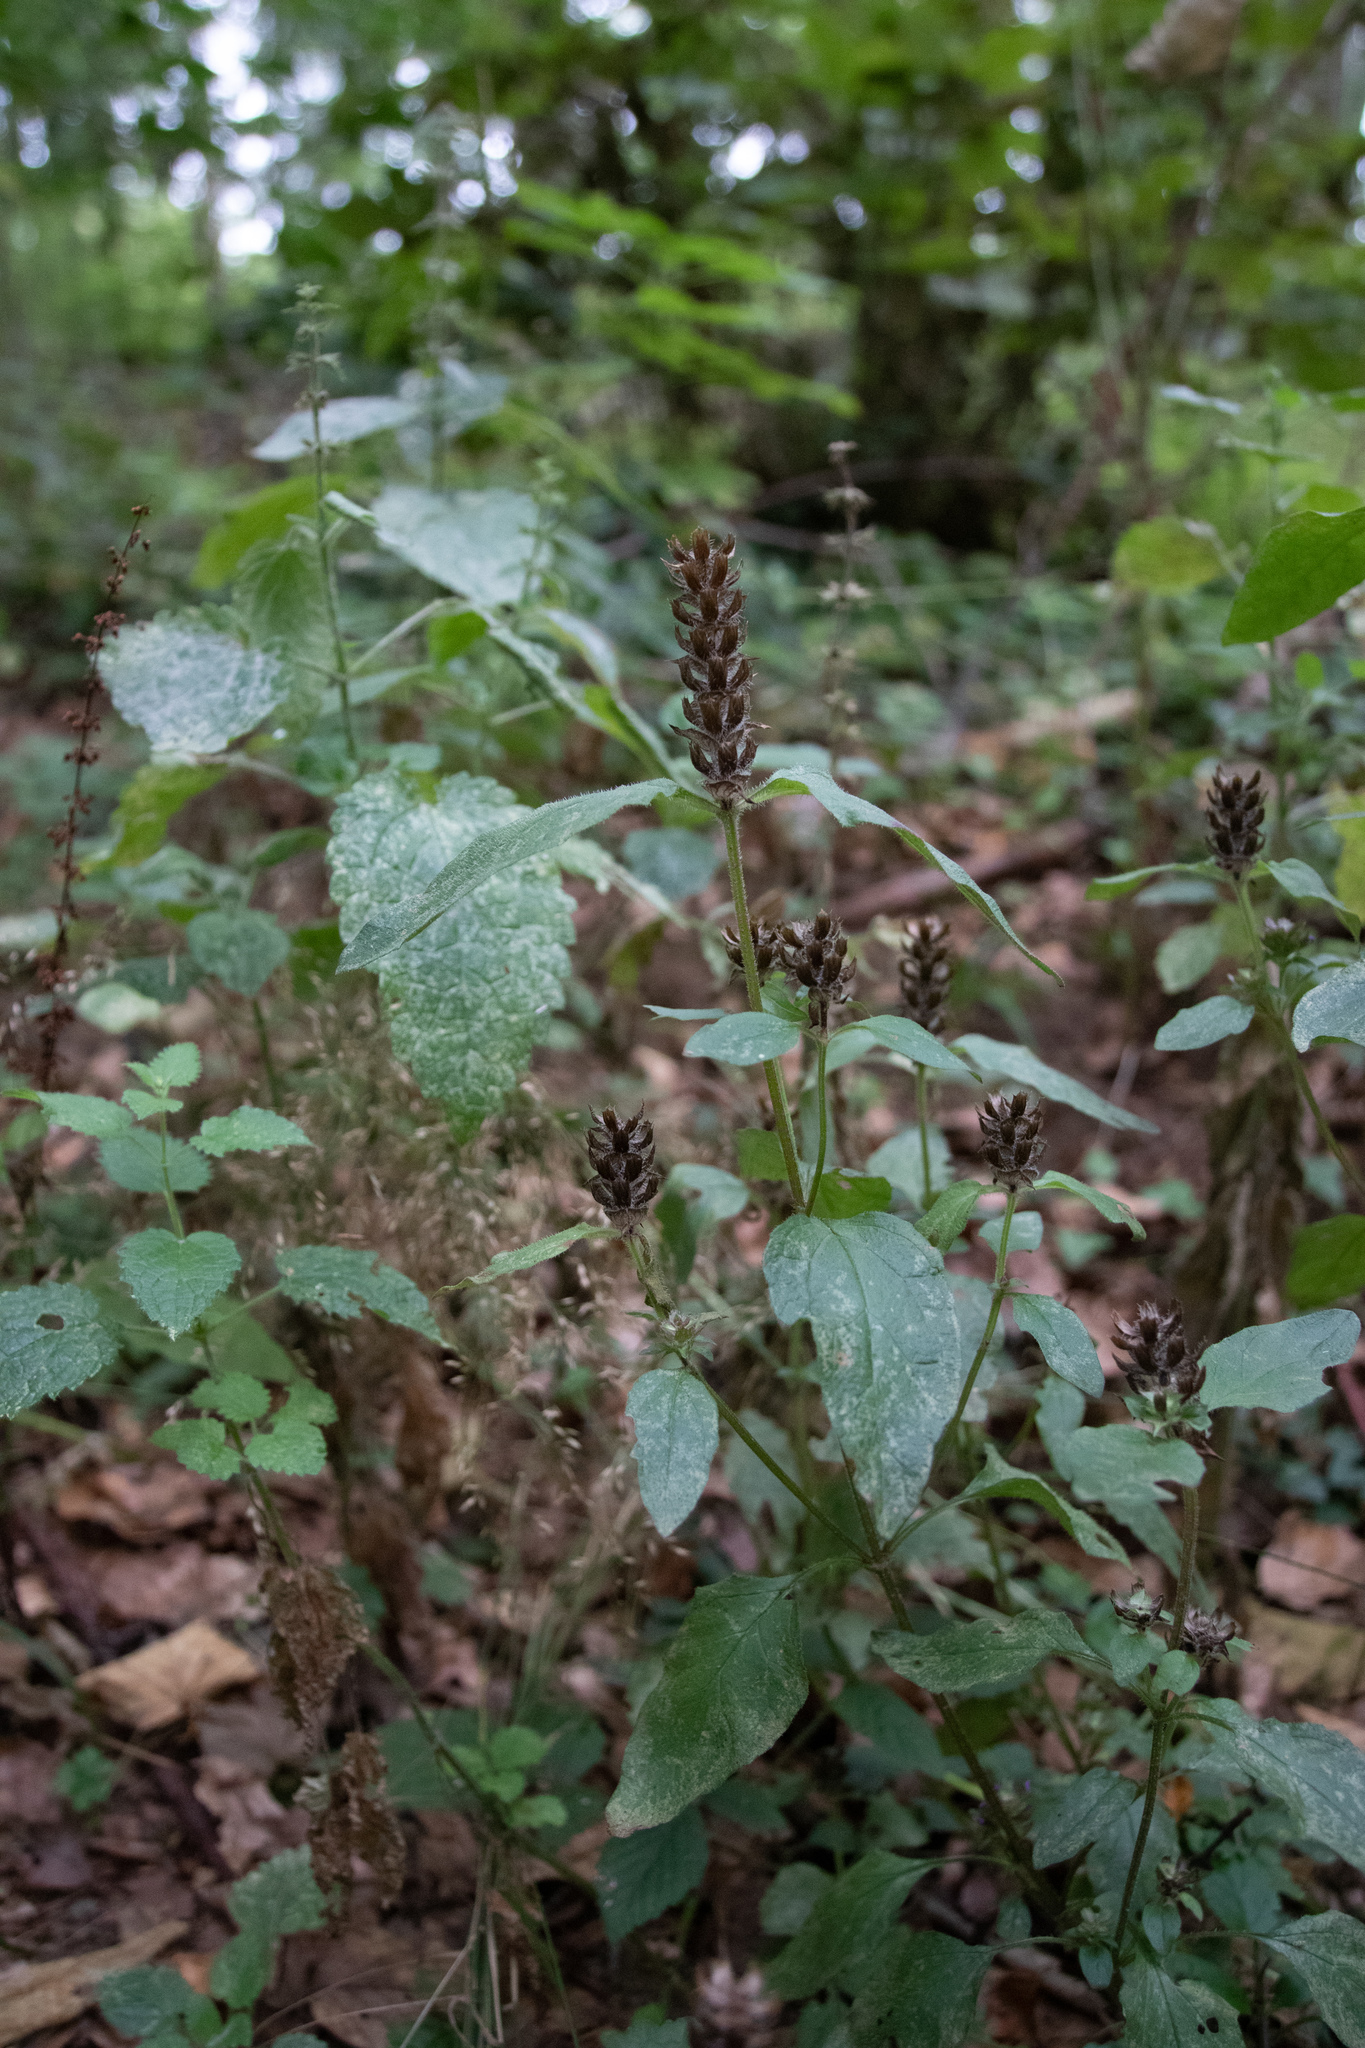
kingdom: Plantae
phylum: Tracheophyta
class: Magnoliopsida
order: Lamiales
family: Lamiaceae
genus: Prunella
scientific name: Prunella vulgaris
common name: Heal-all
